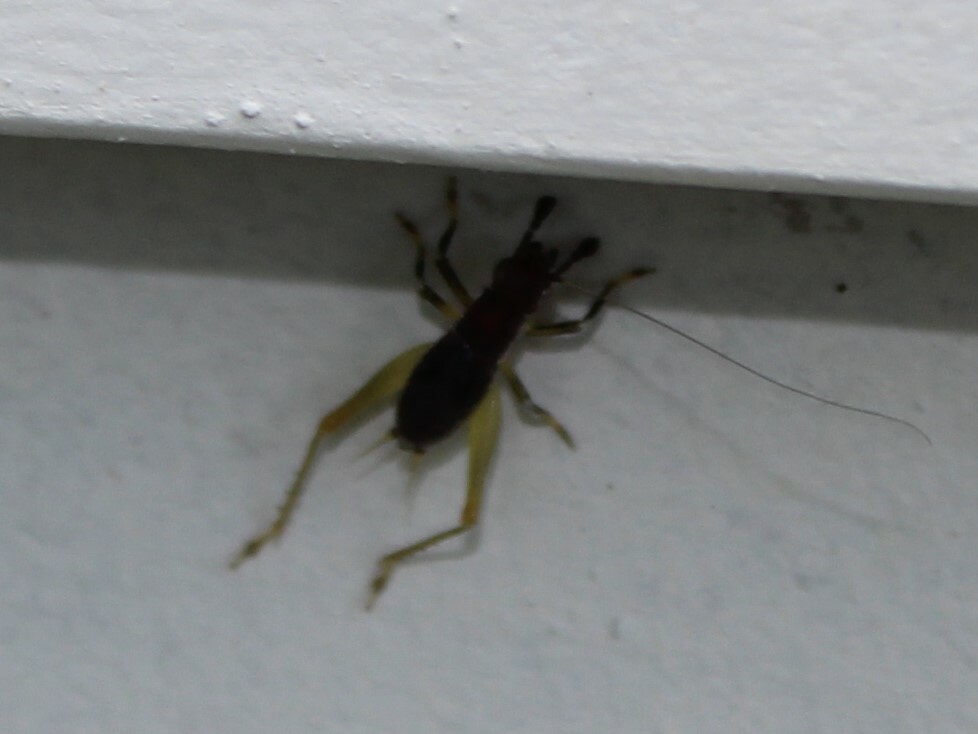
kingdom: Animalia
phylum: Arthropoda
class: Insecta
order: Orthoptera
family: Trigonidiidae
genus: Phyllopalpus
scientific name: Phyllopalpus pulchellus
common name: Handsome trig
